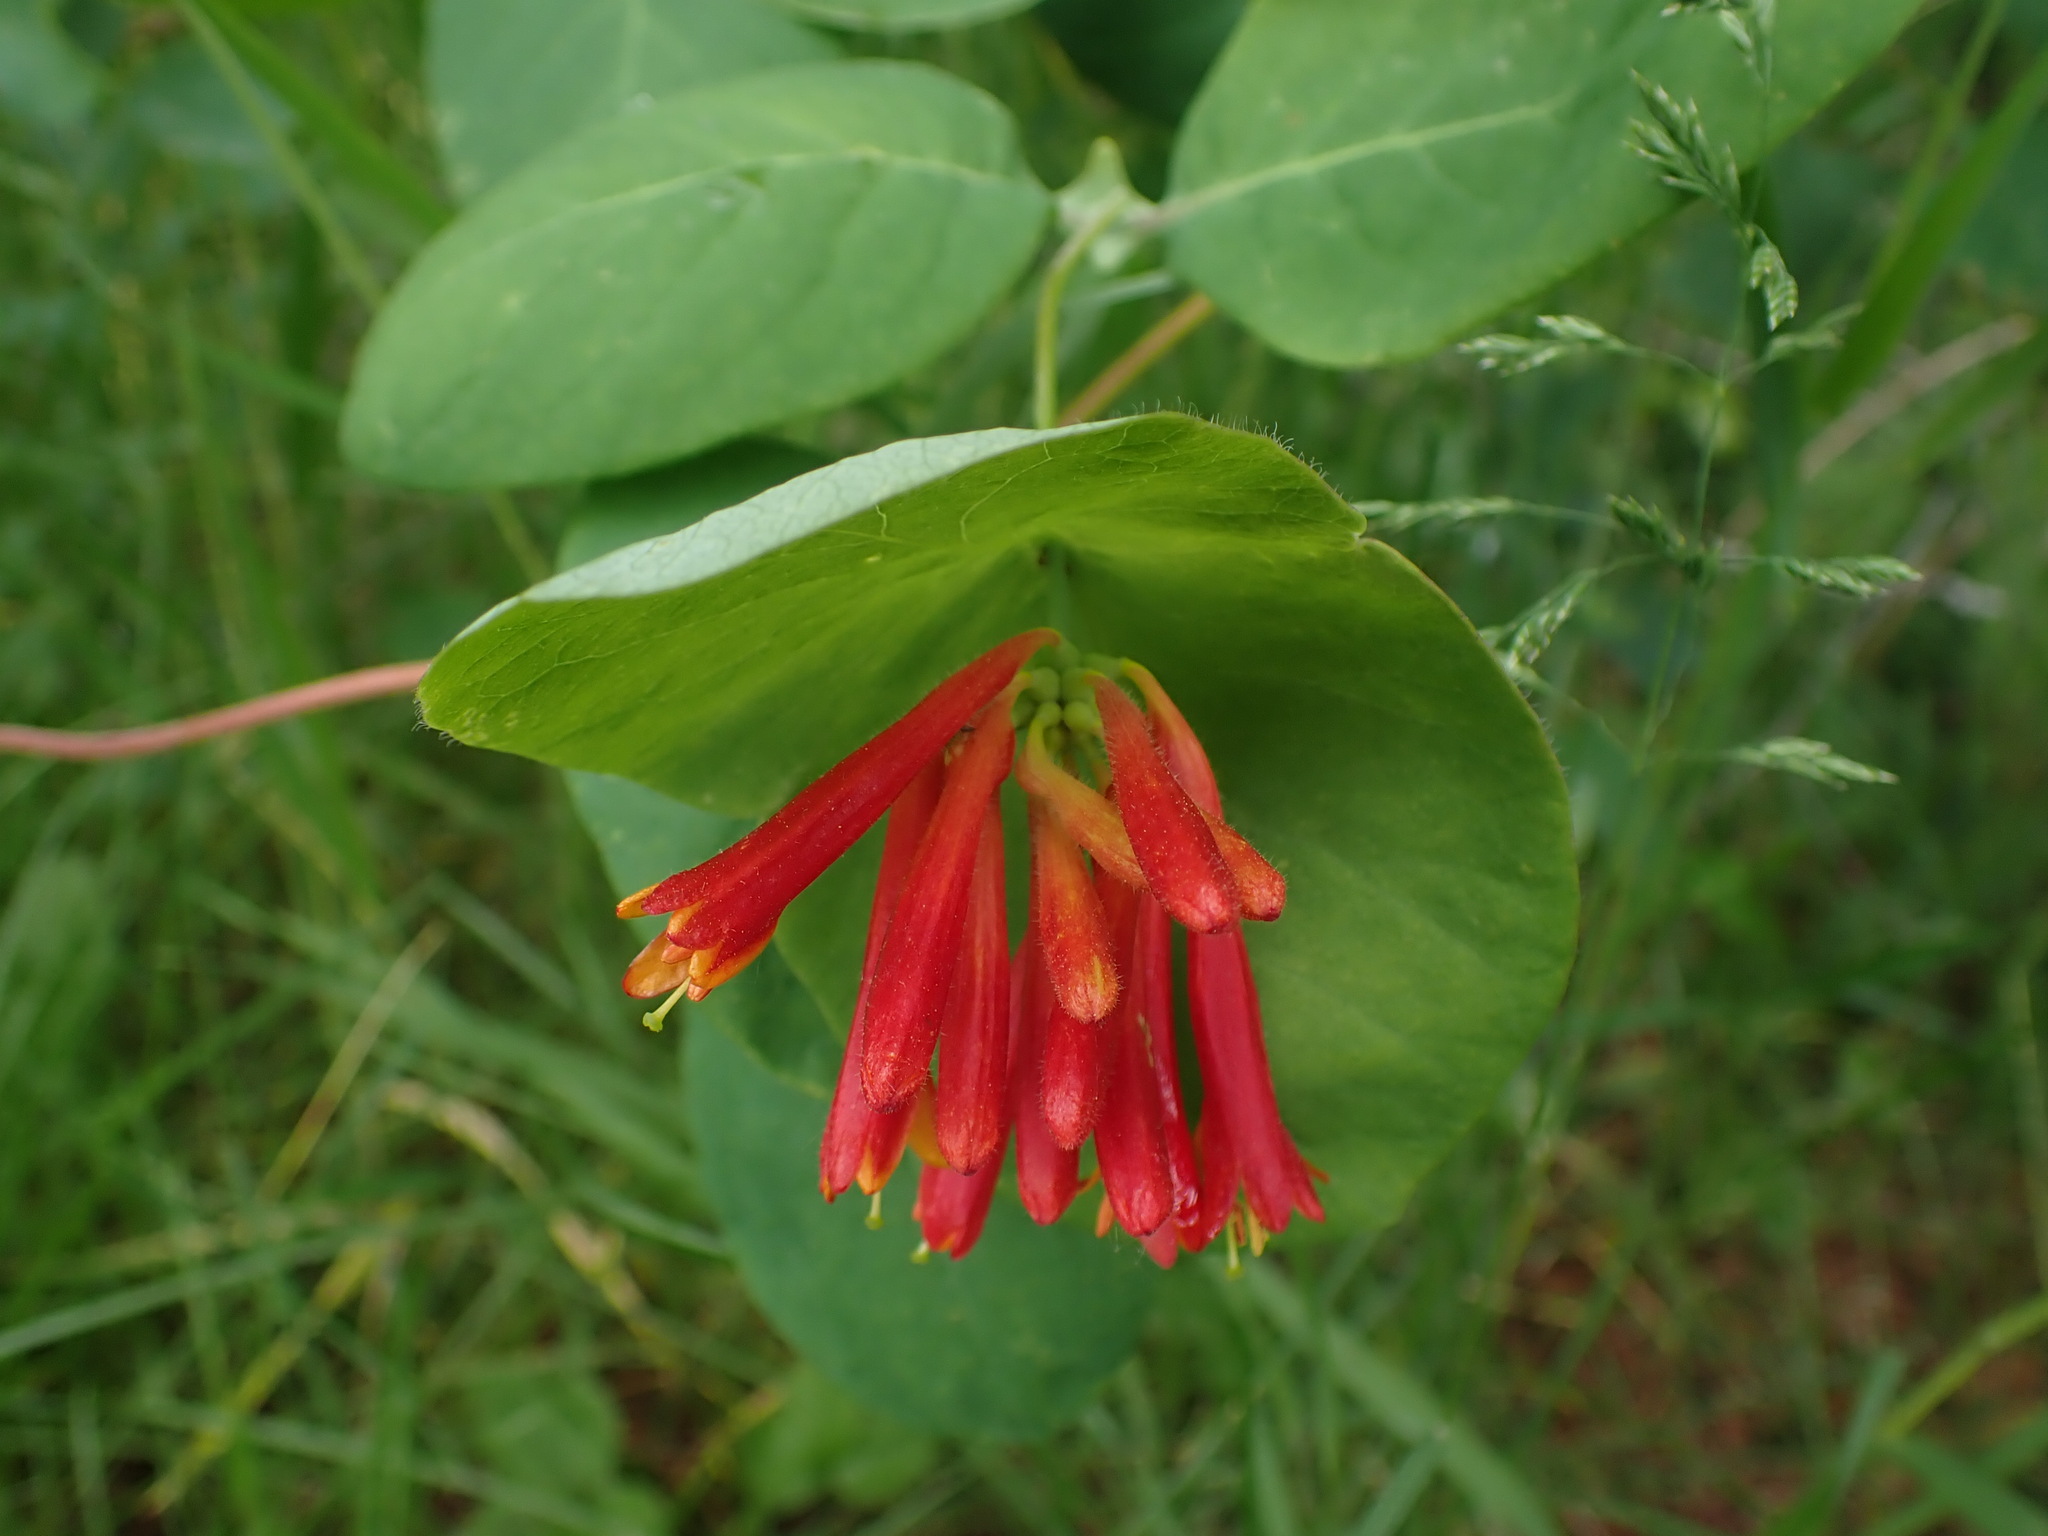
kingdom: Plantae
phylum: Tracheophyta
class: Magnoliopsida
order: Dipsacales
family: Caprifoliaceae
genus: Lonicera
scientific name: Lonicera ciliosa
